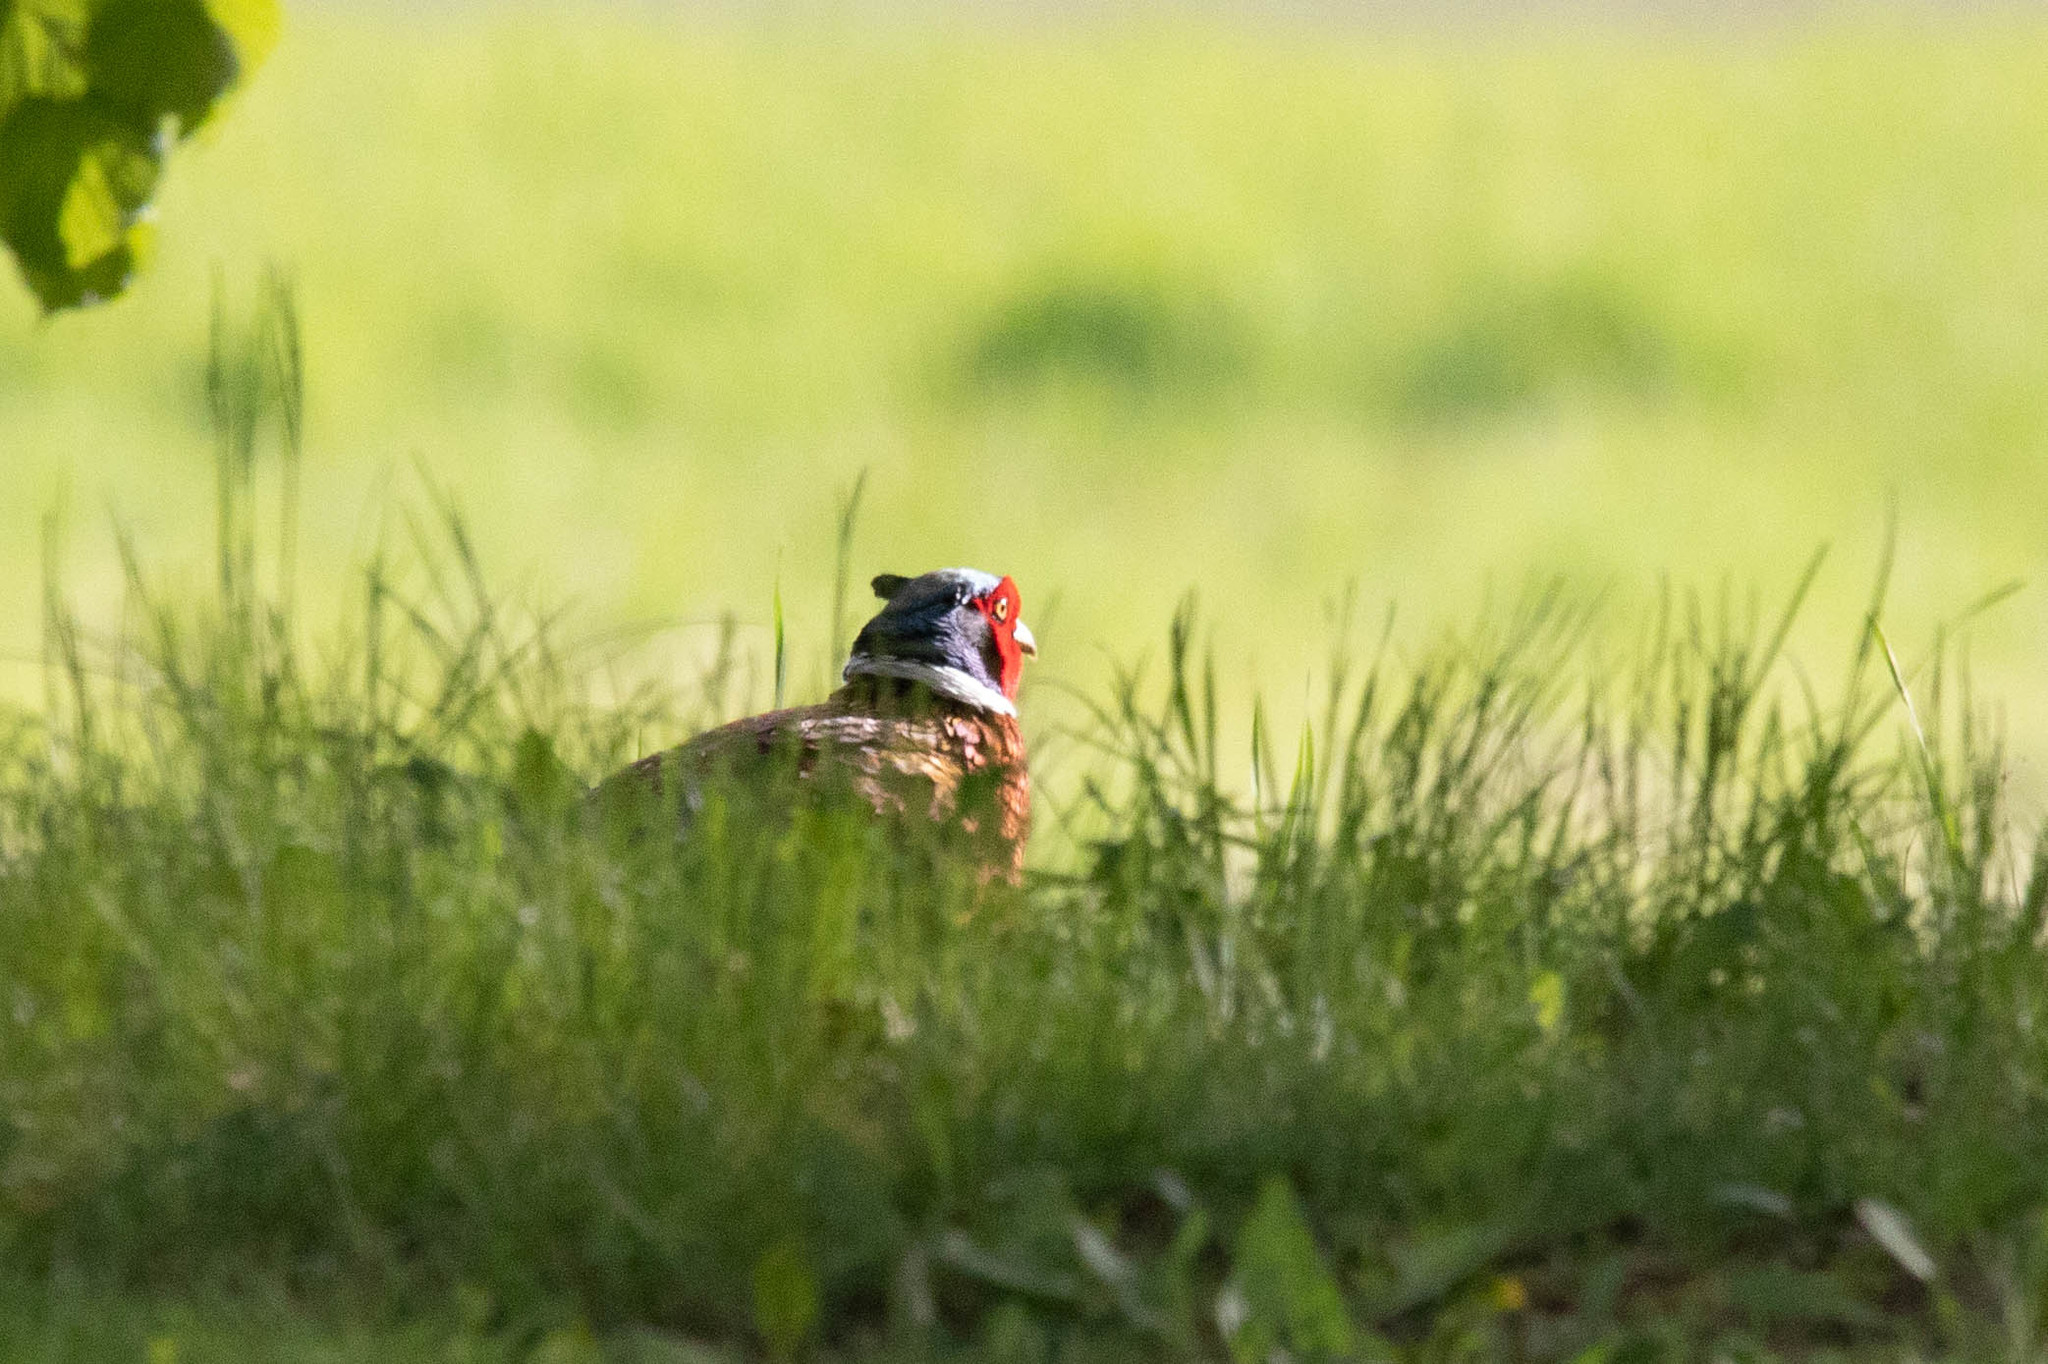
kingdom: Animalia
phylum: Chordata
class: Aves
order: Galliformes
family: Phasianidae
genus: Phasianus
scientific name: Phasianus colchicus
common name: Common pheasant
